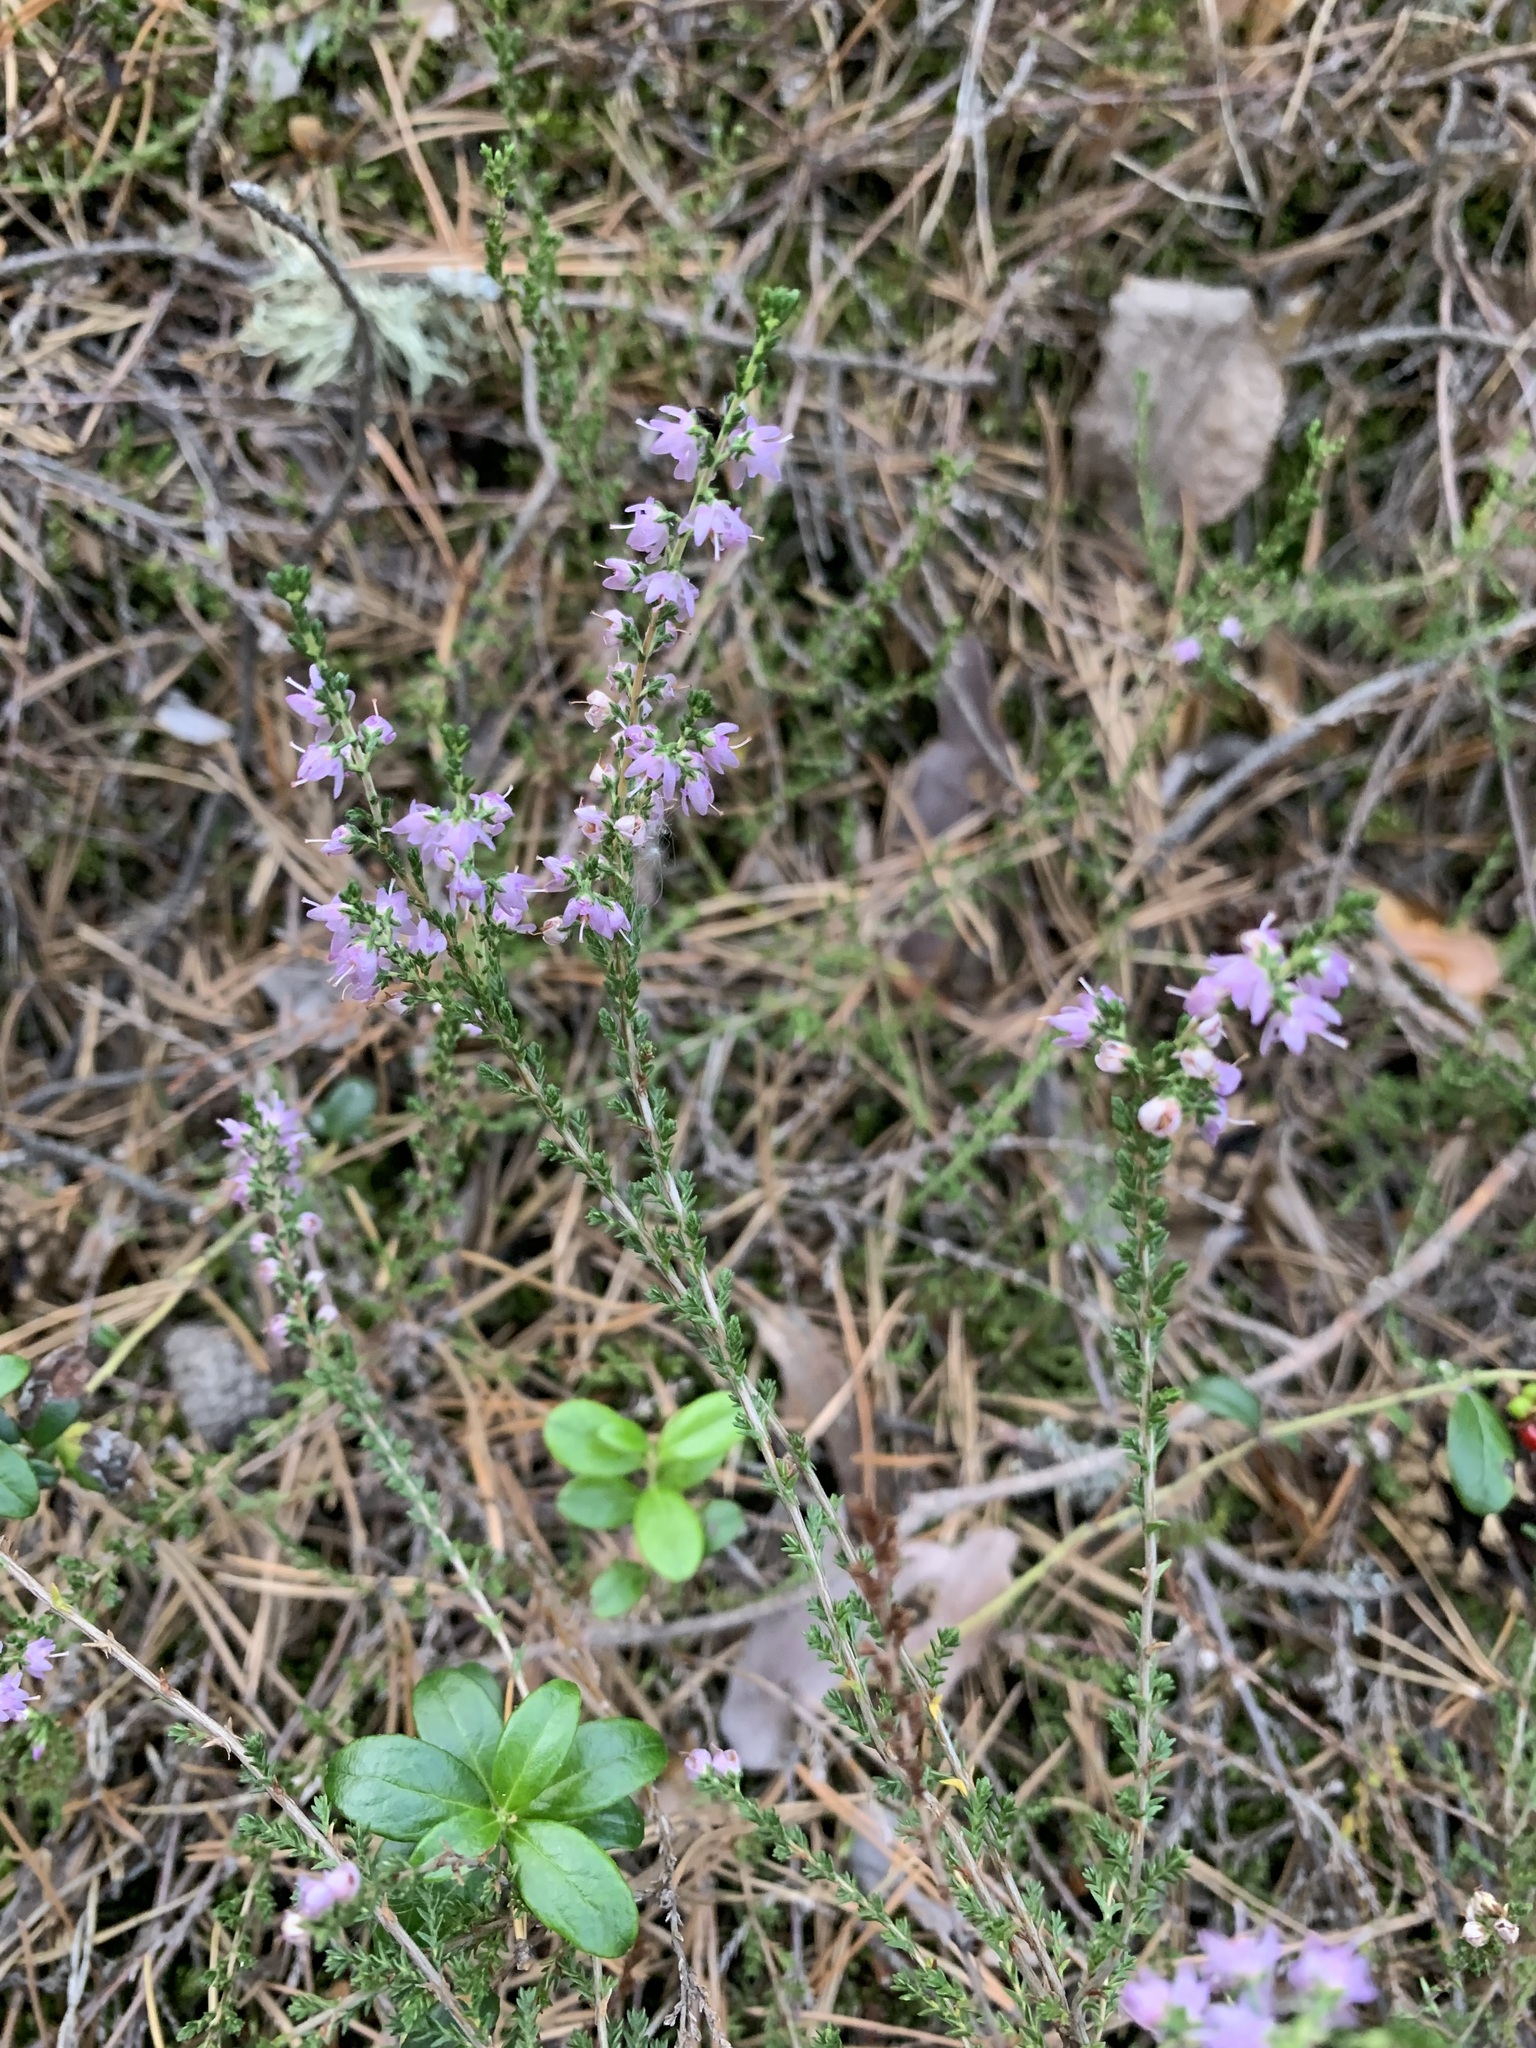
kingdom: Plantae
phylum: Tracheophyta
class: Magnoliopsida
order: Ericales
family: Ericaceae
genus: Calluna
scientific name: Calluna vulgaris
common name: Heather
